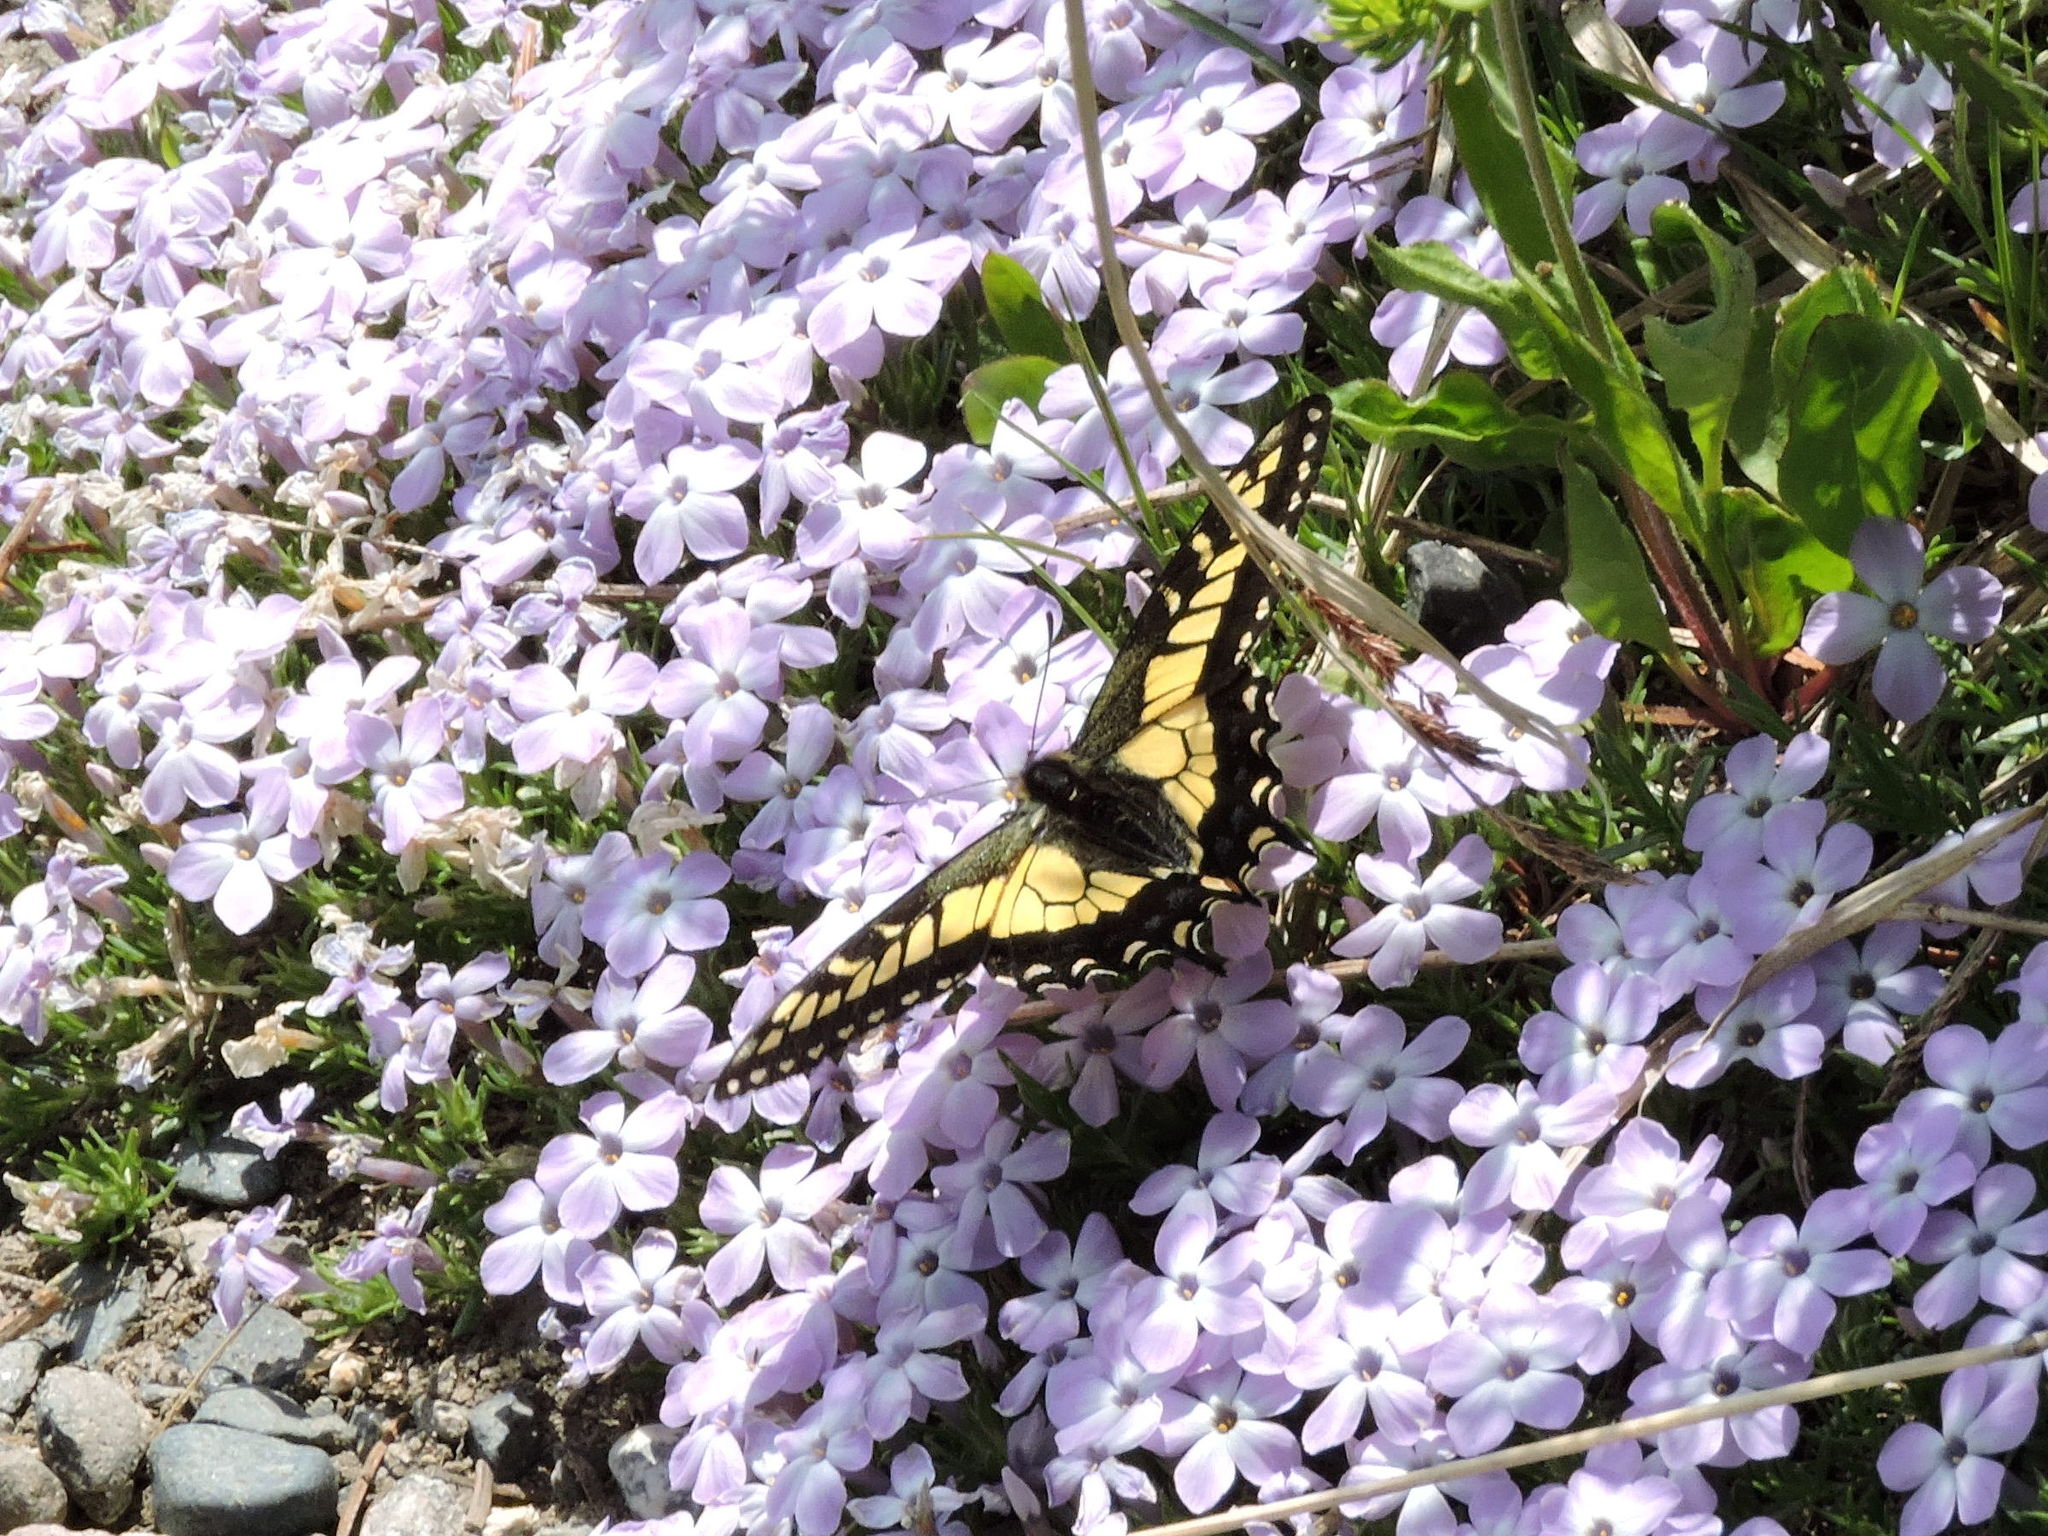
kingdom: Animalia
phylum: Arthropoda
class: Insecta
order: Lepidoptera
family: Papilionidae
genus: Papilio
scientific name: Papilio zelicaon
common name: Anise swallowtail
